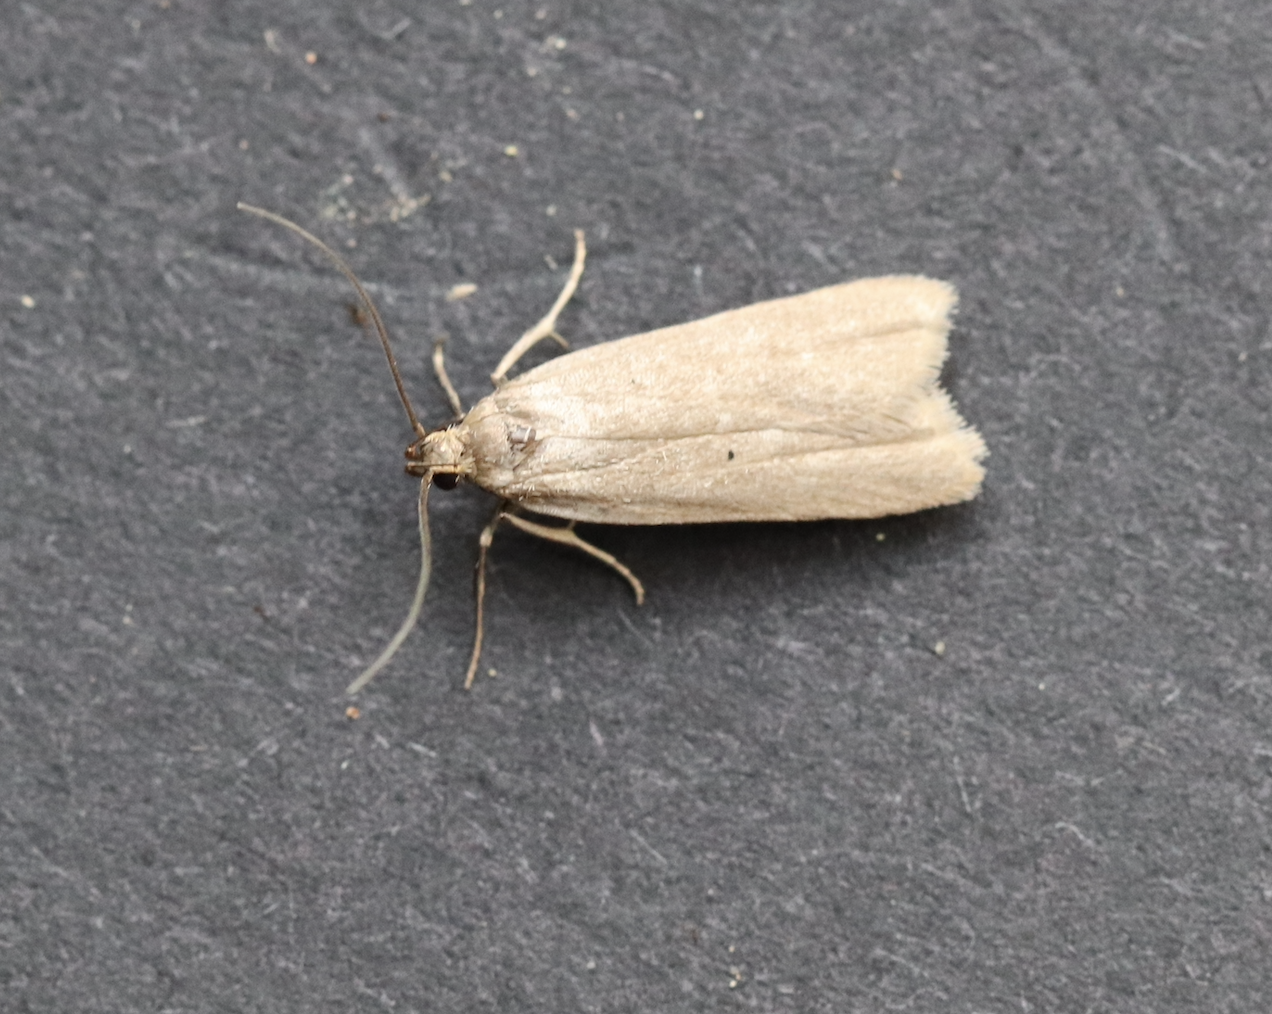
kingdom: Animalia
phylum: Arthropoda
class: Insecta
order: Lepidoptera
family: Gelechiidae
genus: Acompsia
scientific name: Acompsia cinerella
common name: Ash-coloured sober
